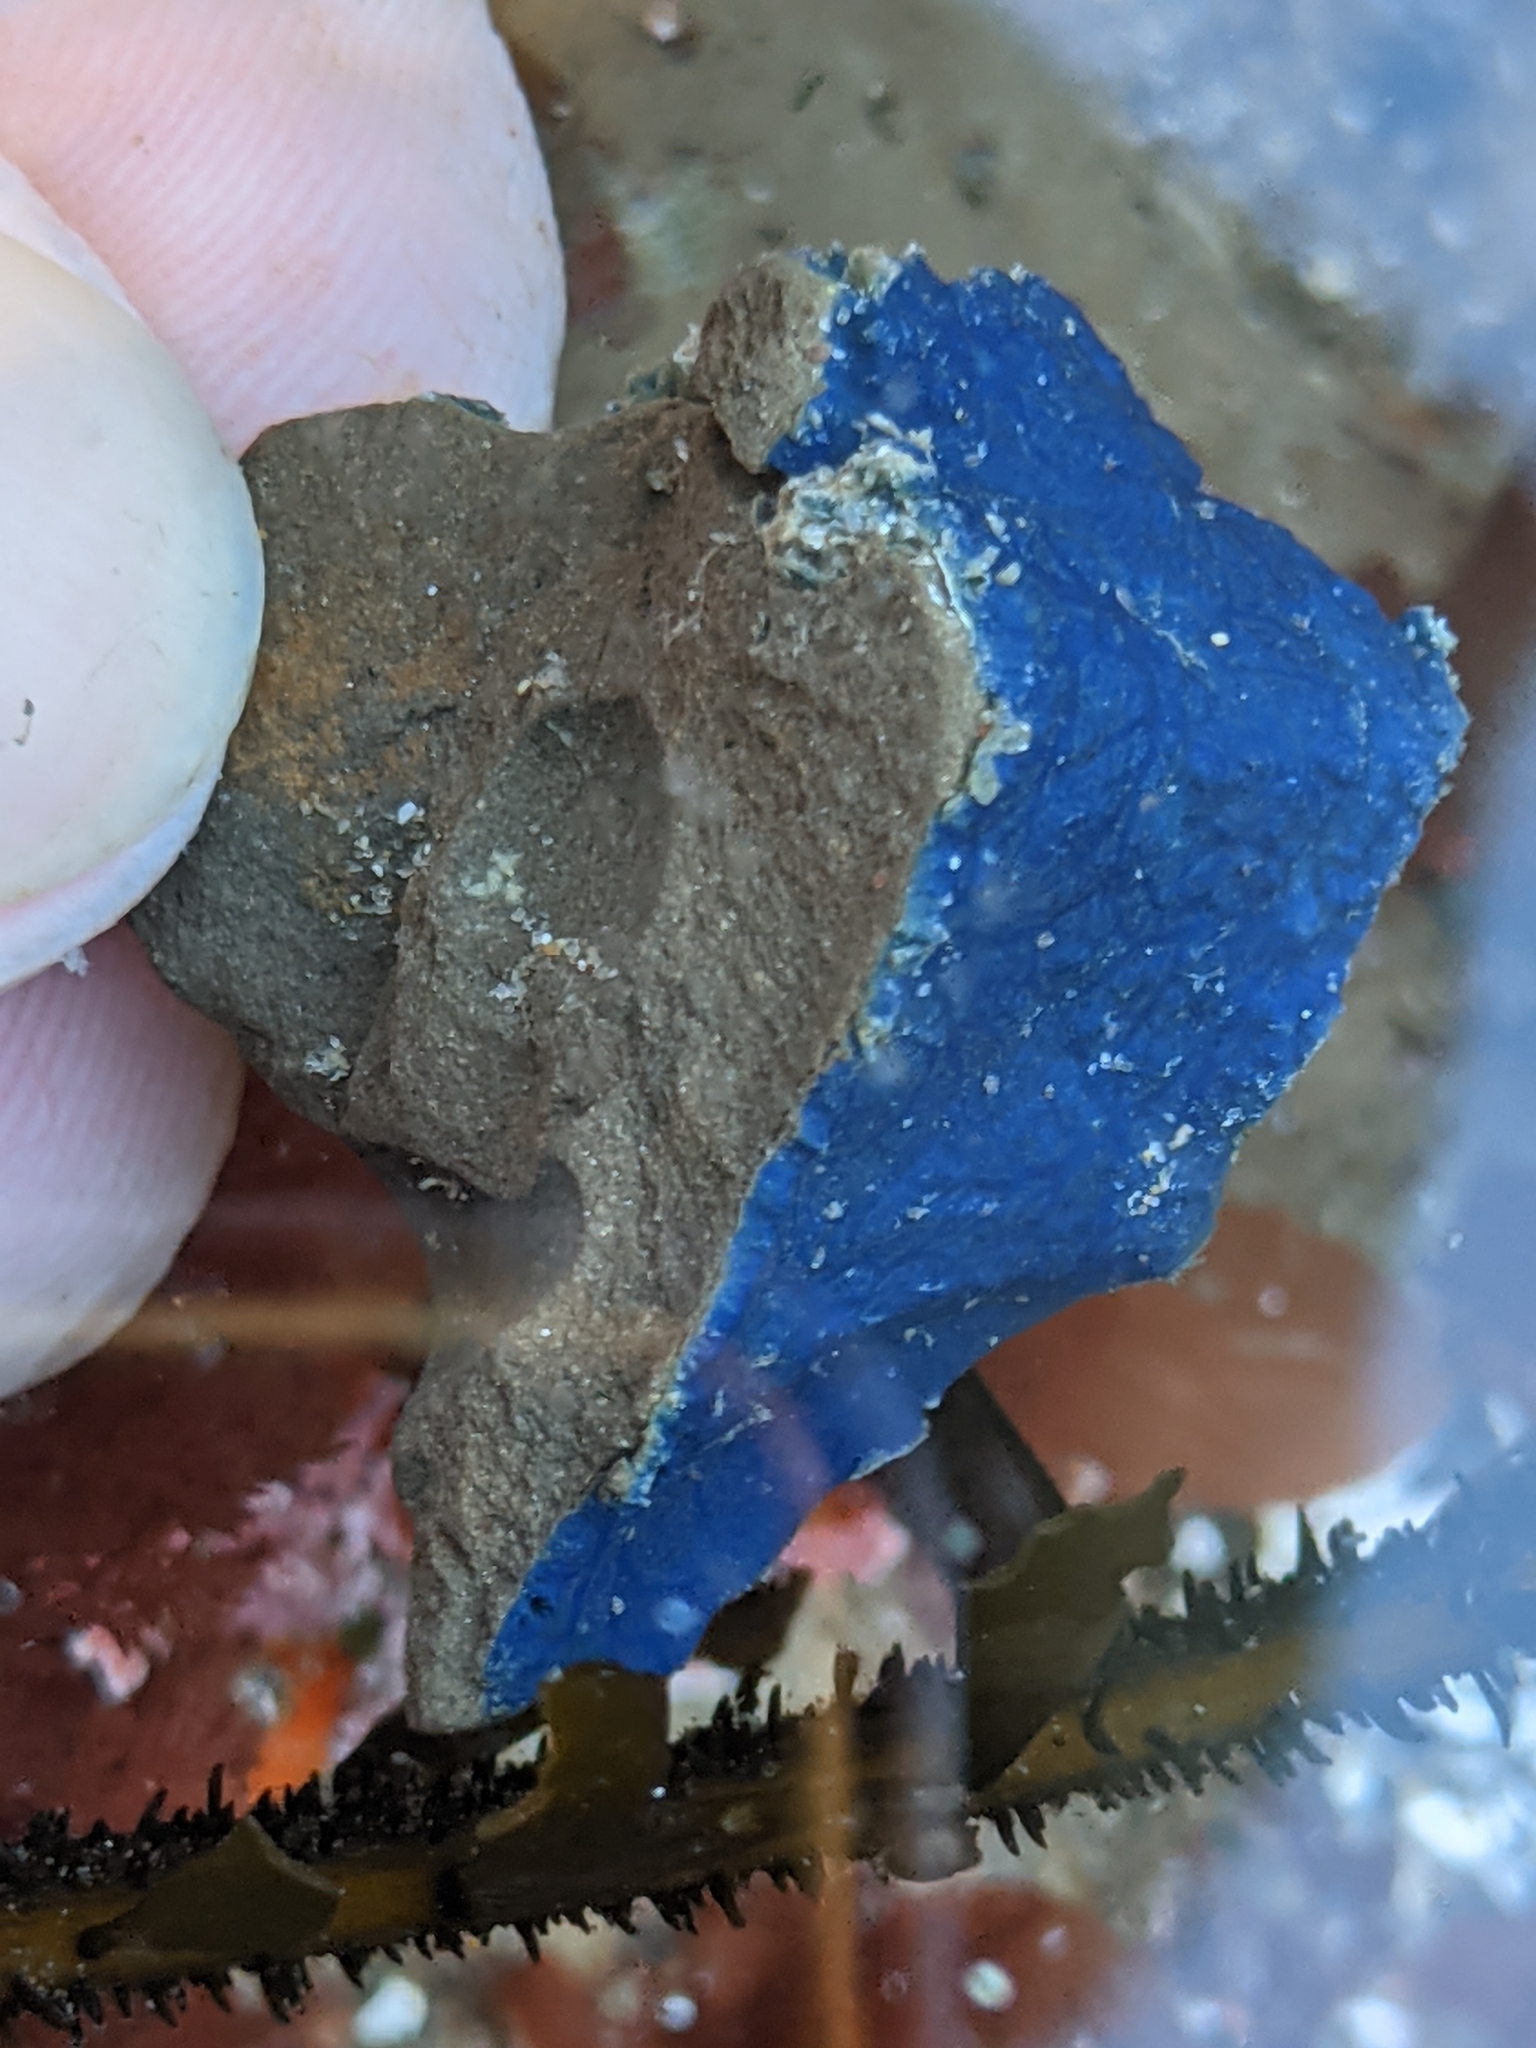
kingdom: Animalia
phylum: Porifera
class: Demospongiae
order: Poecilosclerida
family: Hymedesmiidae
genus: Acanthancora
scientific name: Acanthancora cyanocrypta
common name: Cobalt blue horny sponge
